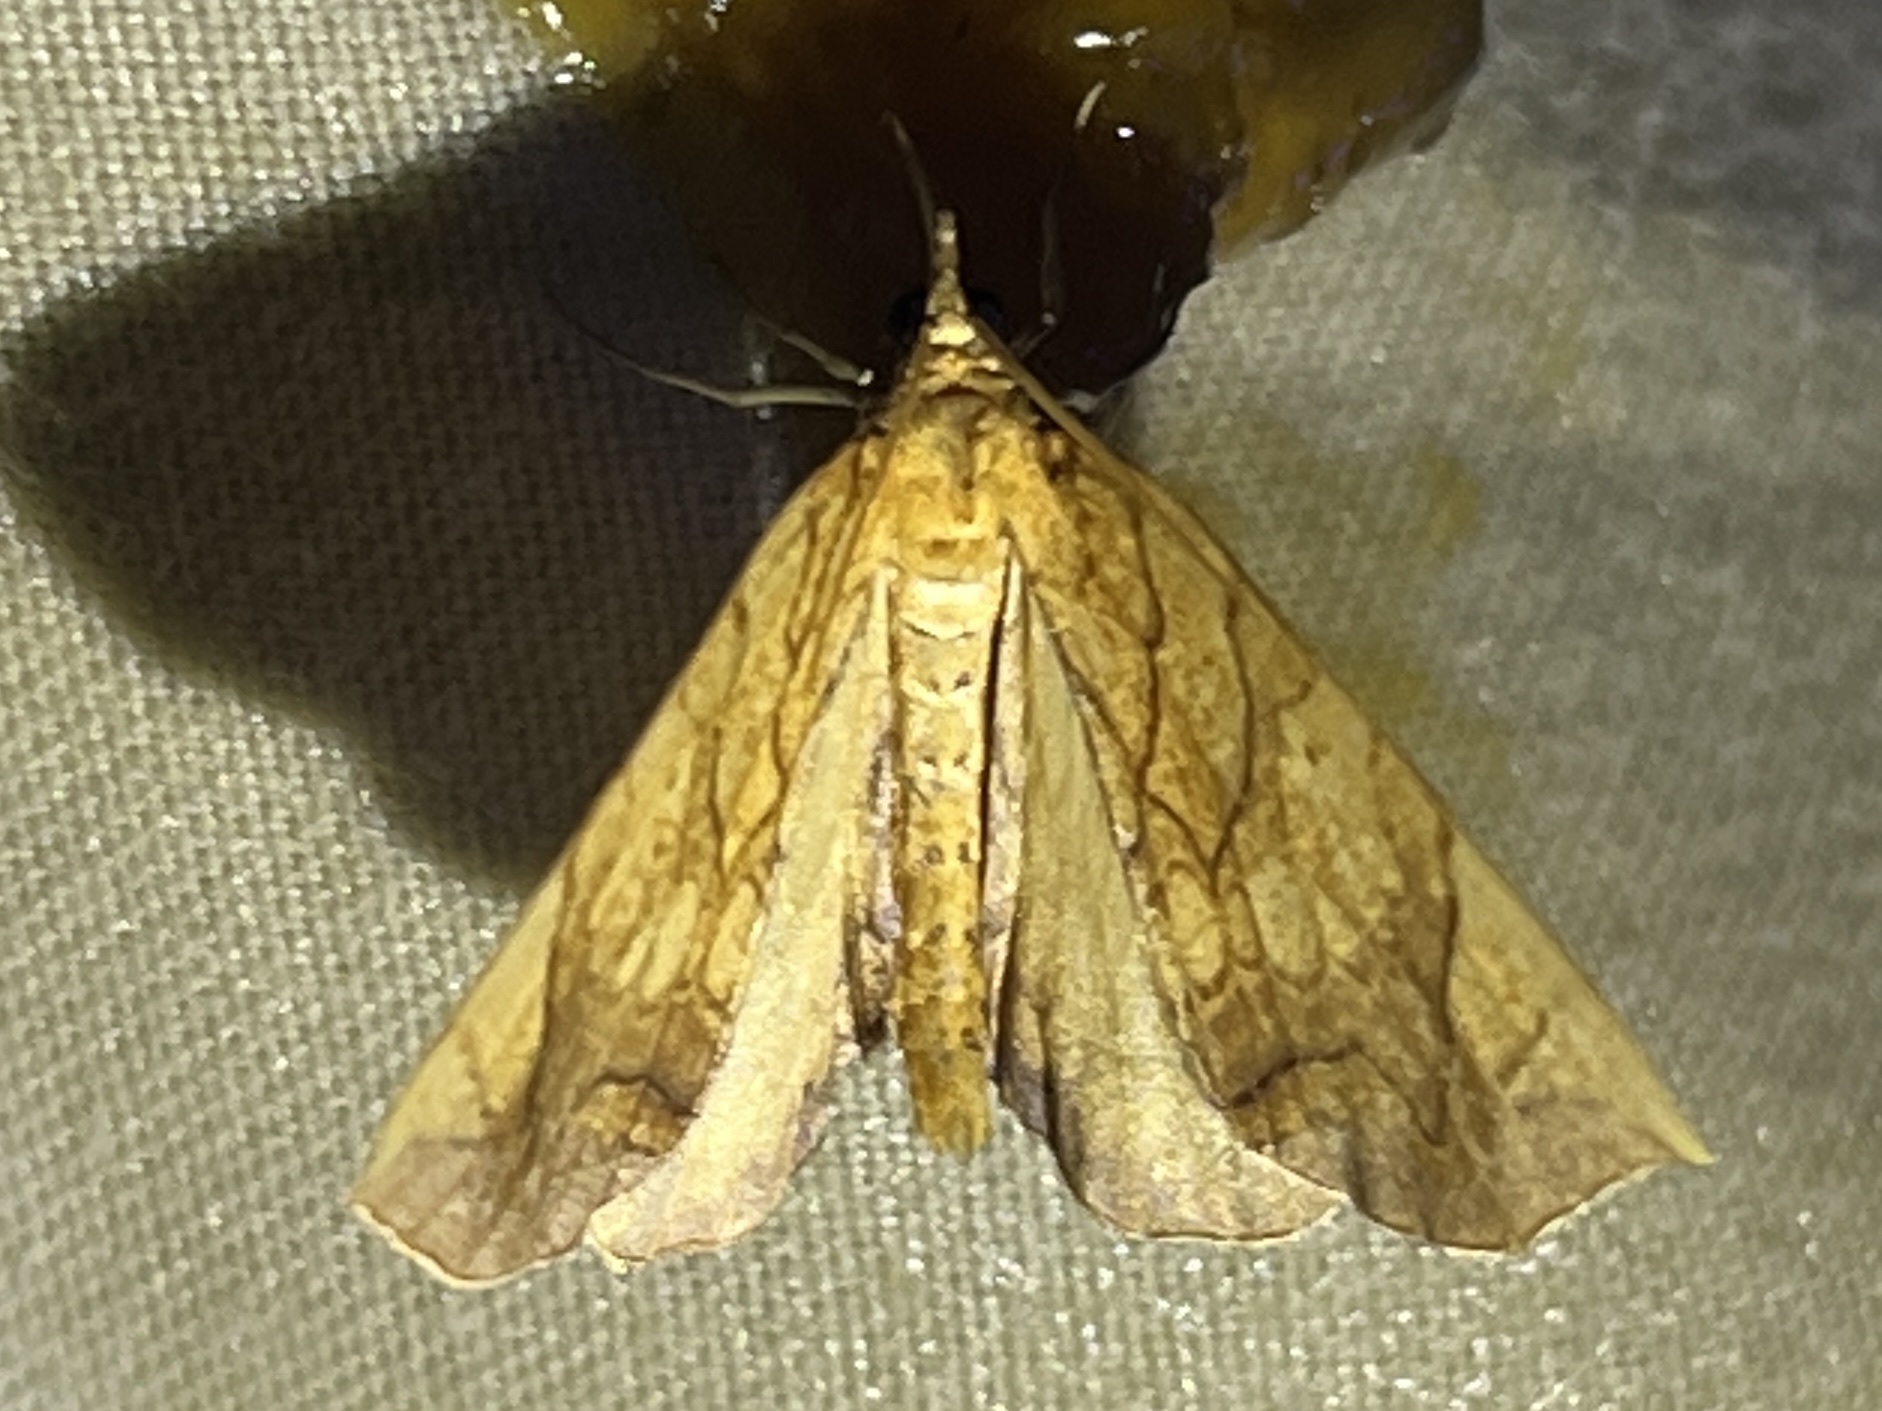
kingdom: Animalia
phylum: Arthropoda
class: Insecta
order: Lepidoptera
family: Geometridae
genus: Eulithis
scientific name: Eulithis
